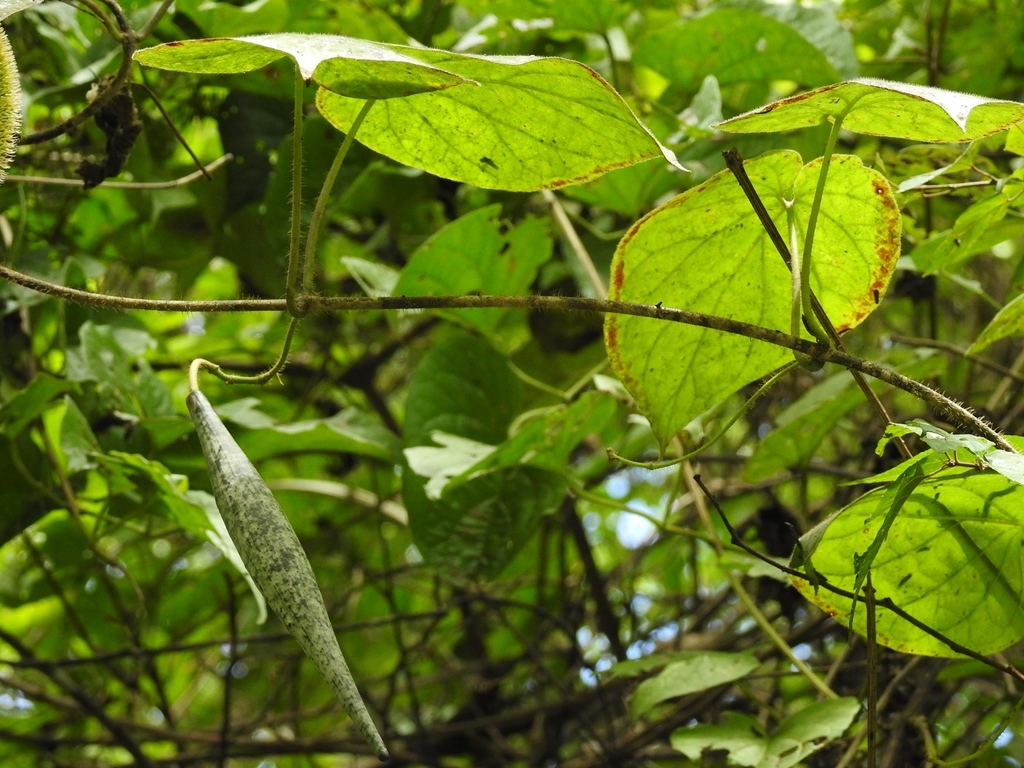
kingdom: Plantae
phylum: Tracheophyta
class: Magnoliopsida
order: Gentianales
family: Apocynaceae
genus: Matelea
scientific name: Matelea velutinoides
